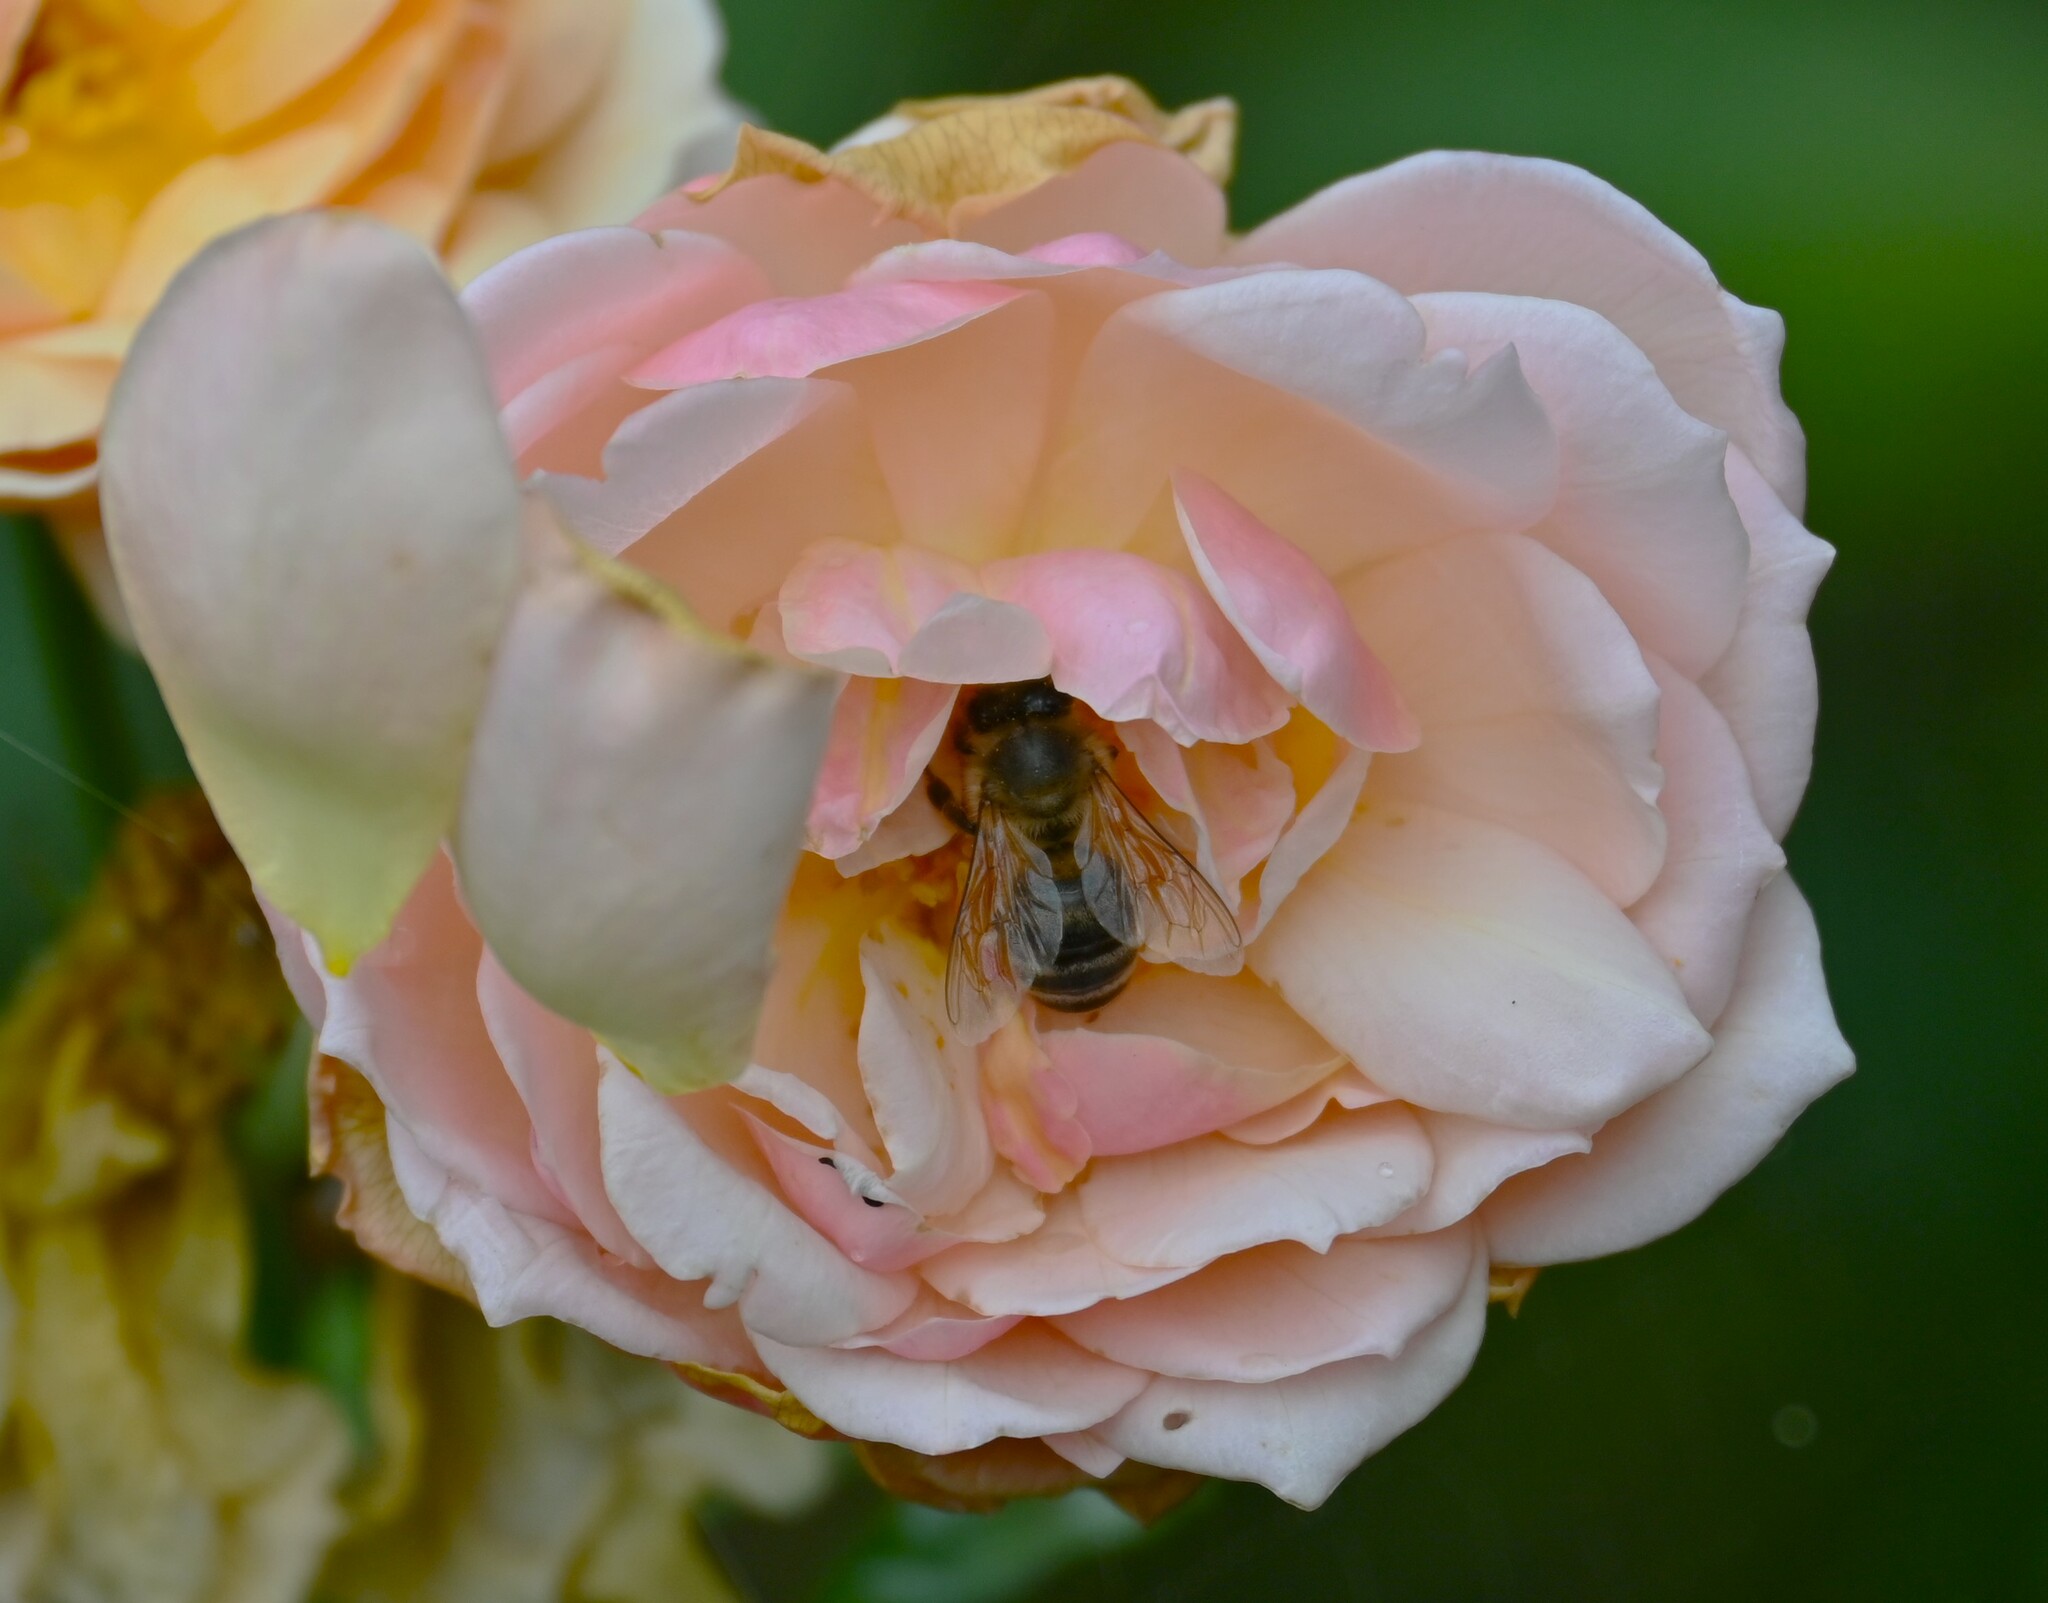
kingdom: Animalia
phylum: Arthropoda
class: Insecta
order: Hymenoptera
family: Apidae
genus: Apis
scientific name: Apis mellifera
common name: Honey bee
